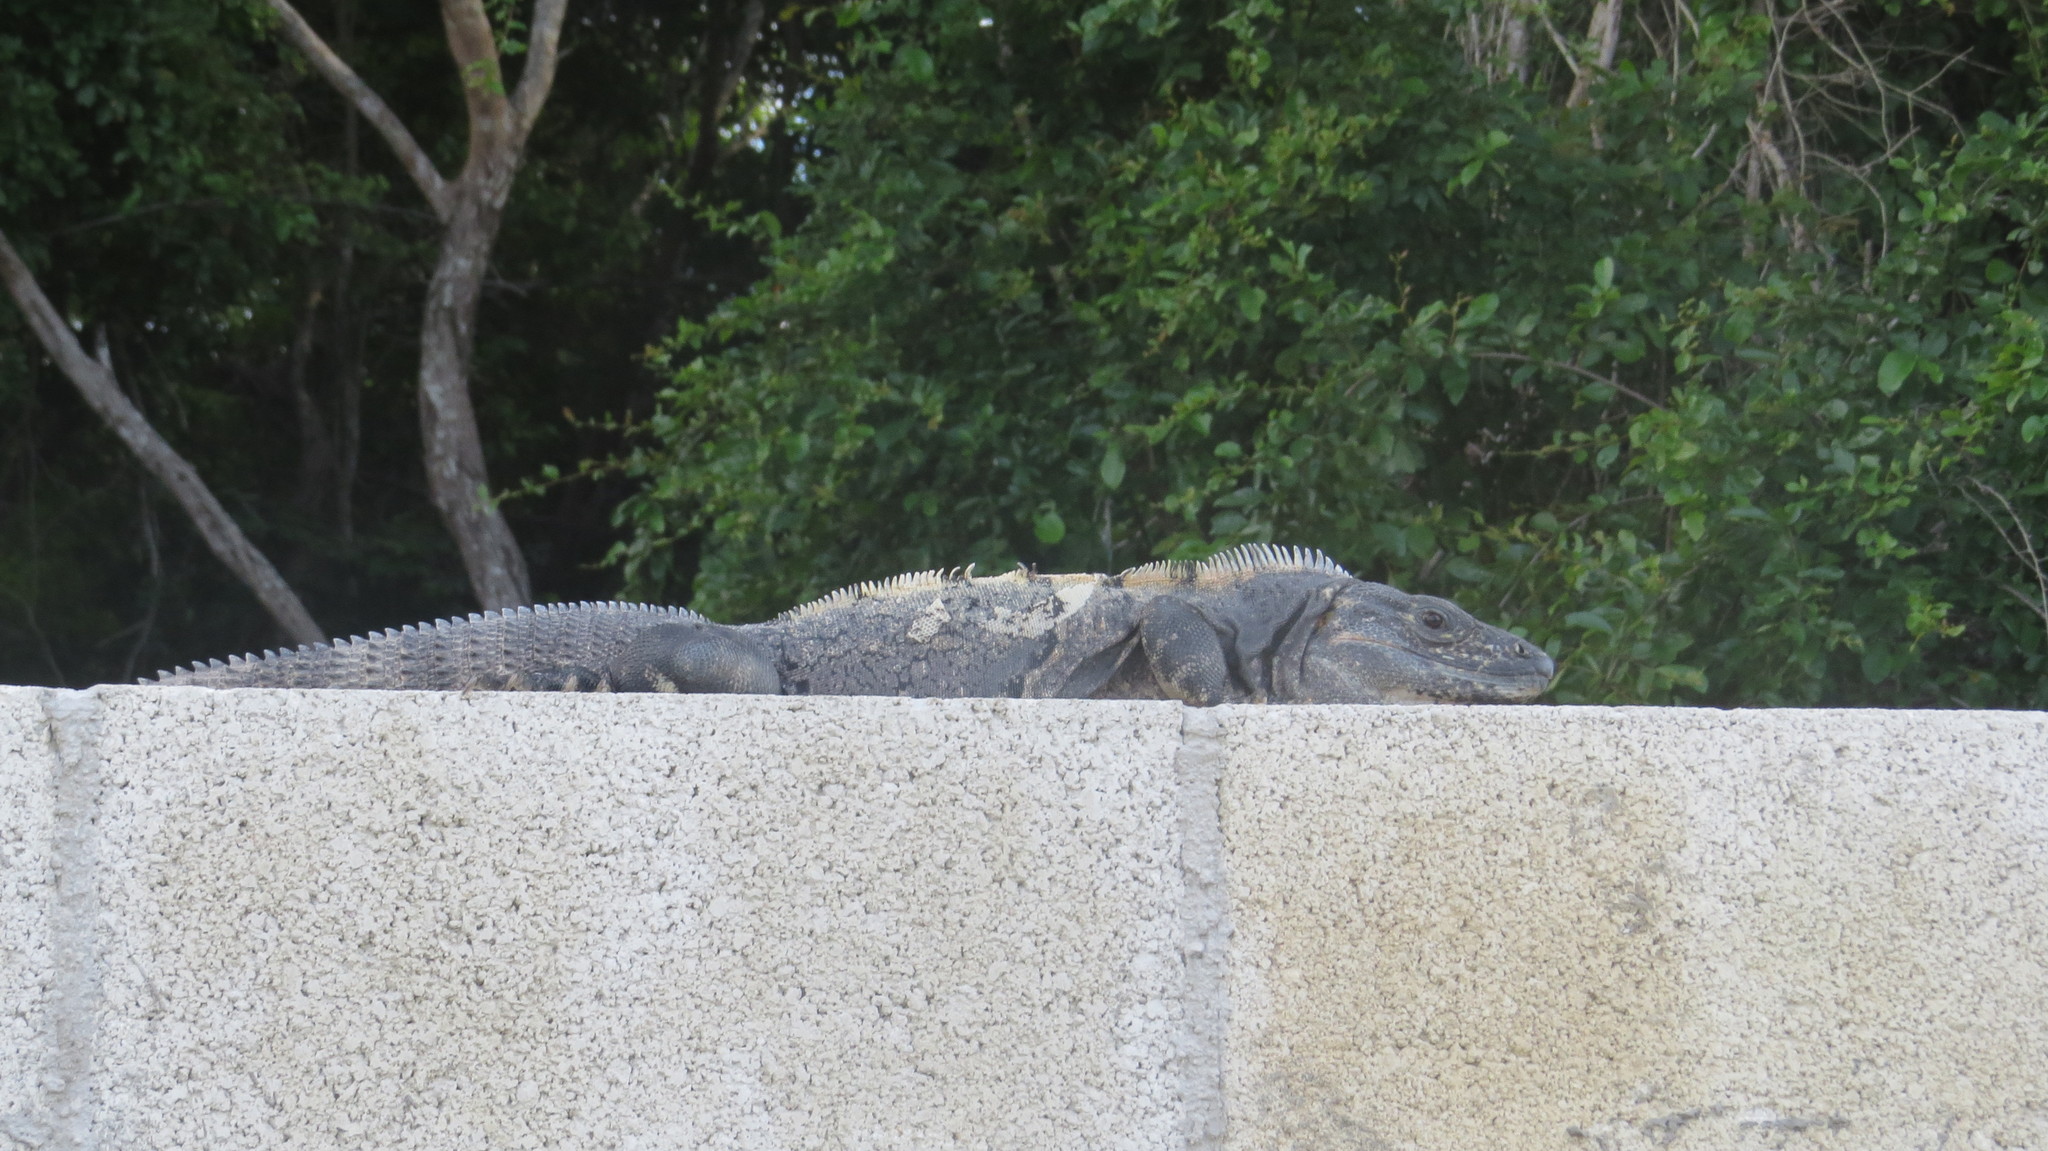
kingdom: Animalia
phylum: Chordata
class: Squamata
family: Iguanidae
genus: Ctenosaura
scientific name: Ctenosaura similis
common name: Black spiny-tailed iguana
